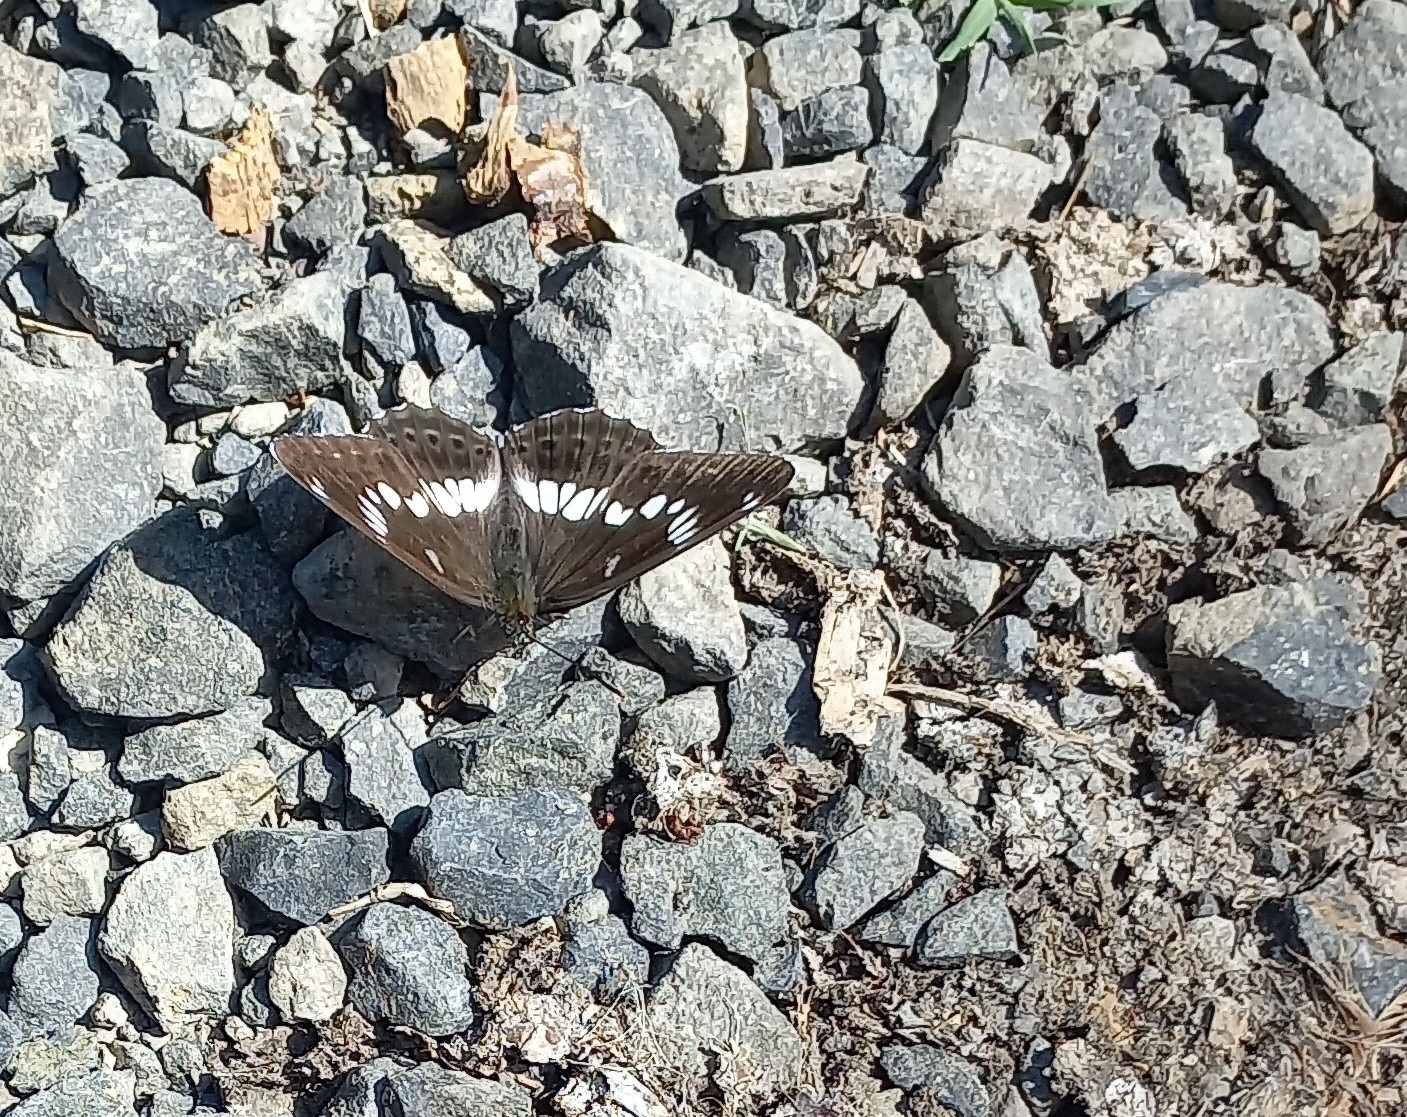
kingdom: Animalia
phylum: Arthropoda
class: Insecta
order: Lepidoptera
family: Nymphalidae
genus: Ladoga
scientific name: Ladoga camilla
